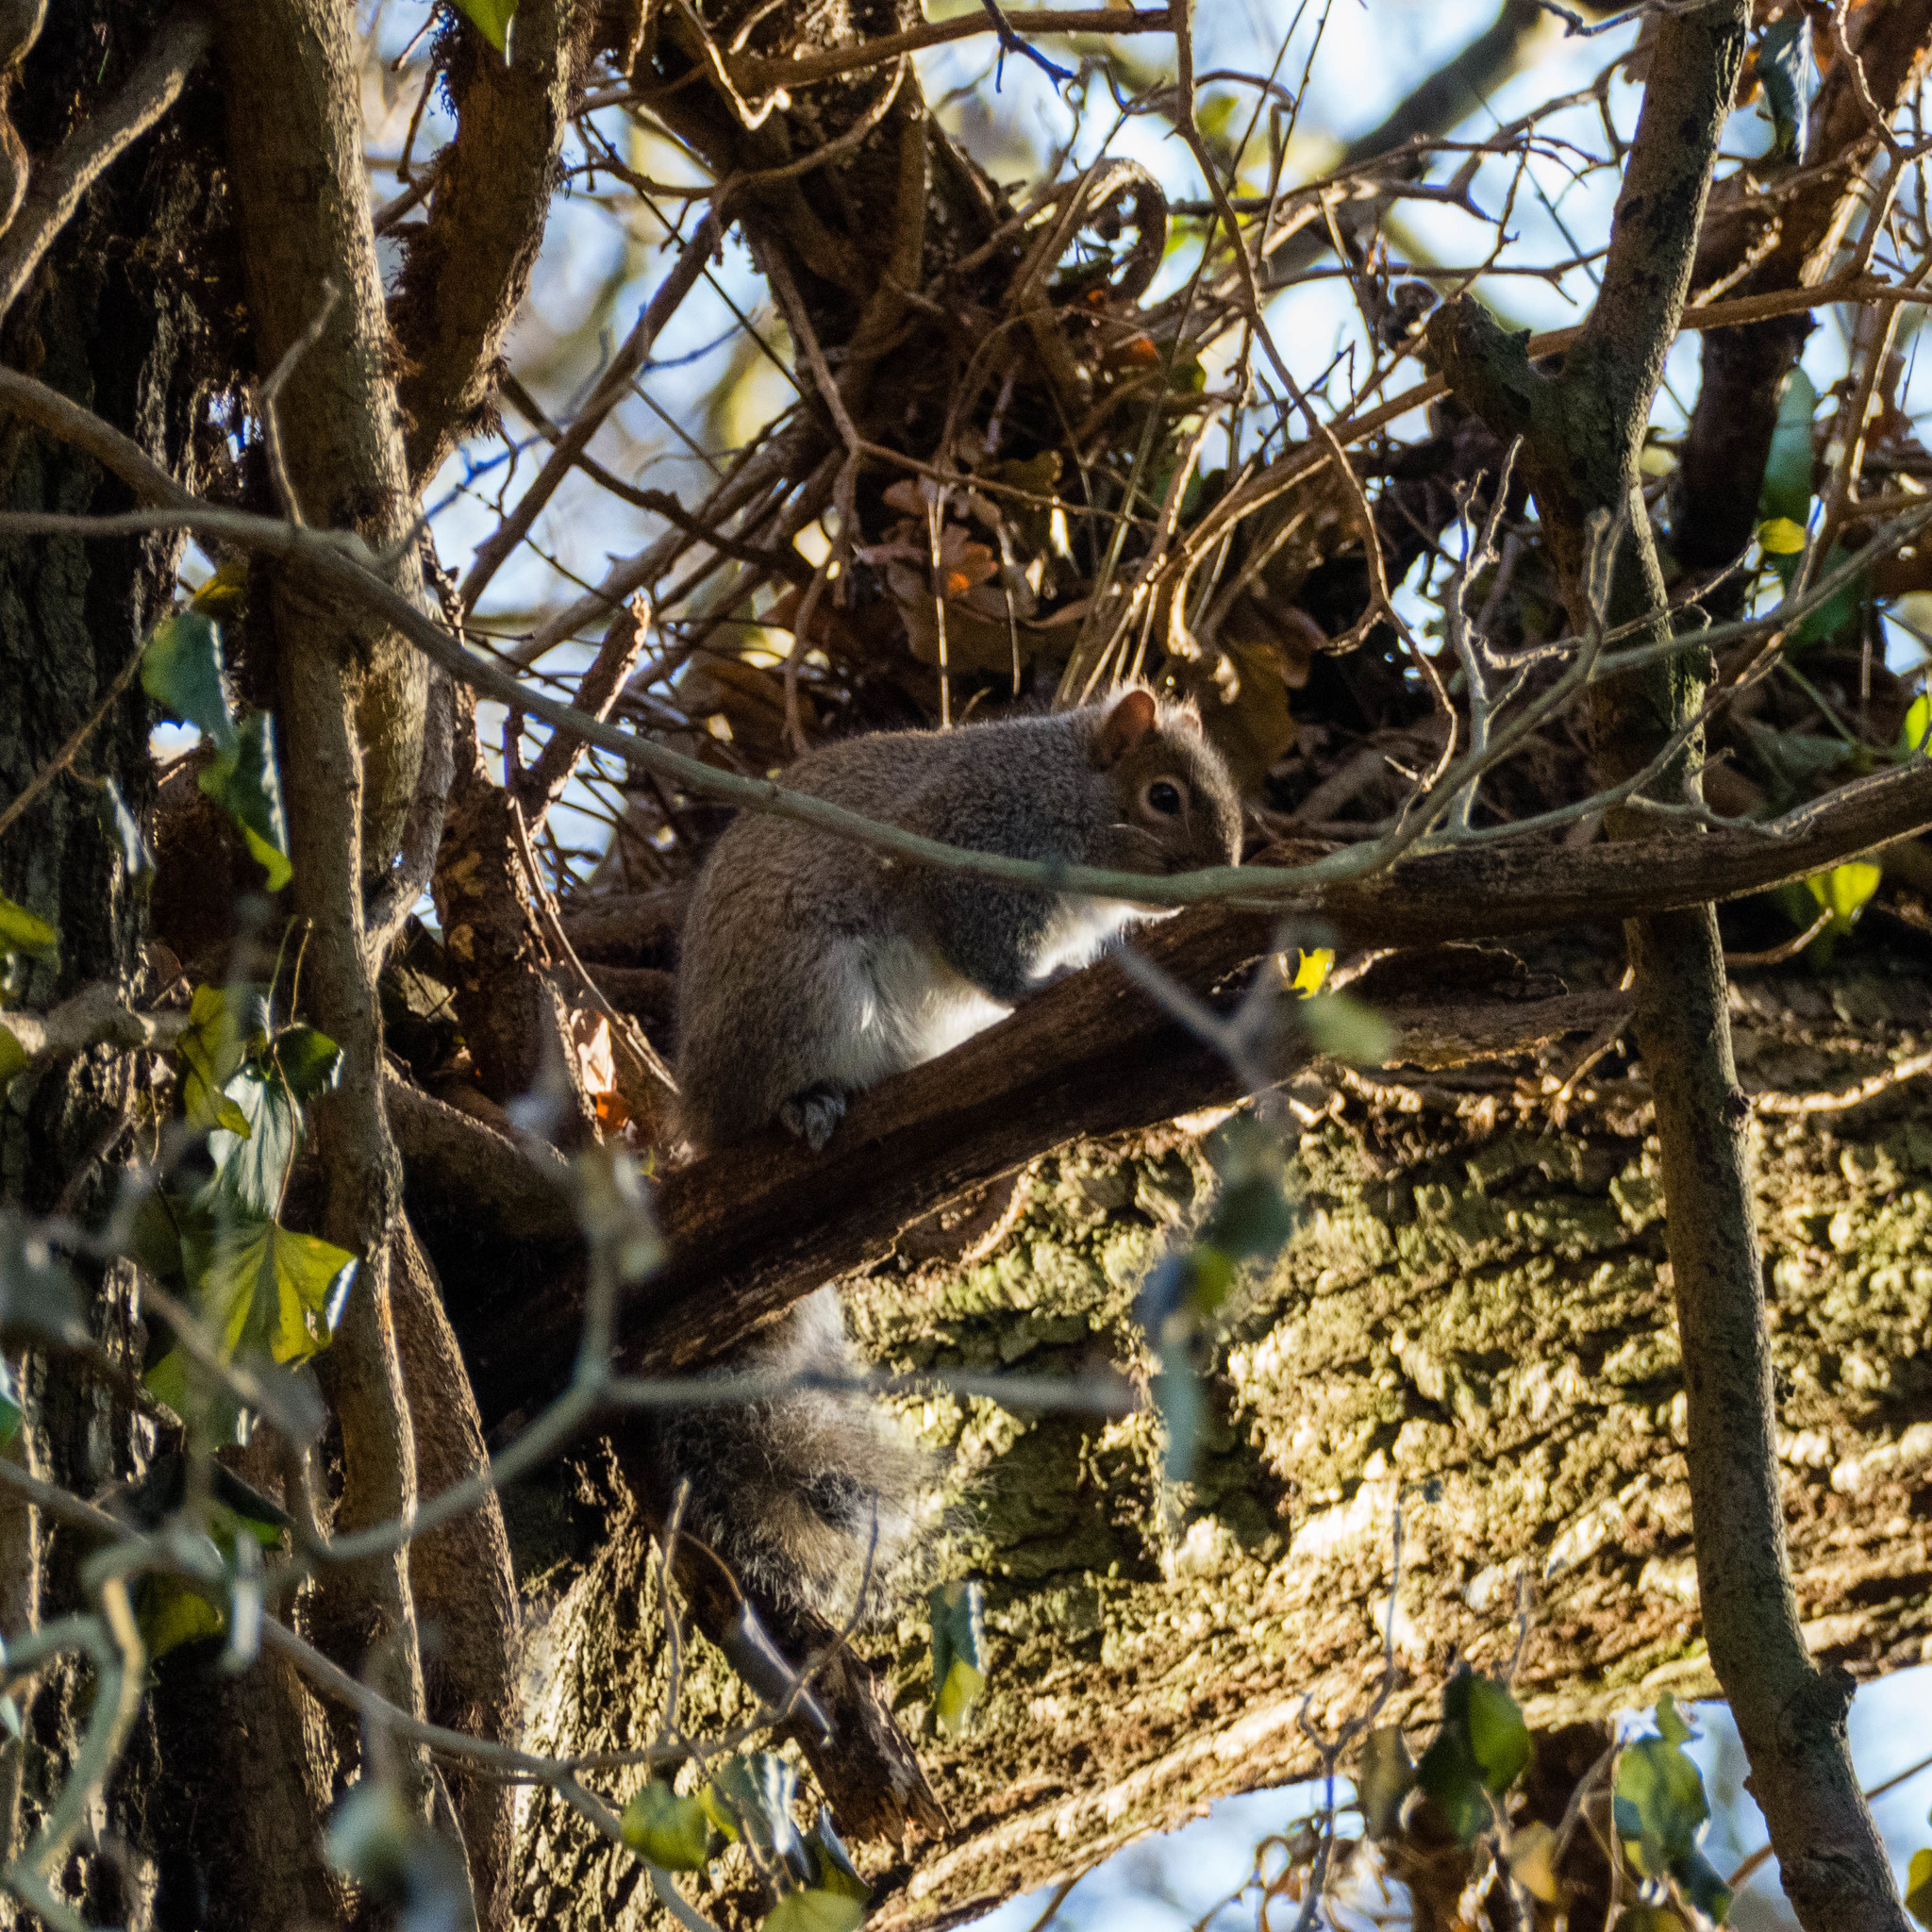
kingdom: Animalia
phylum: Chordata
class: Mammalia
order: Rodentia
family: Sciuridae
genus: Sciurus
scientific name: Sciurus carolinensis
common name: Eastern gray squirrel
